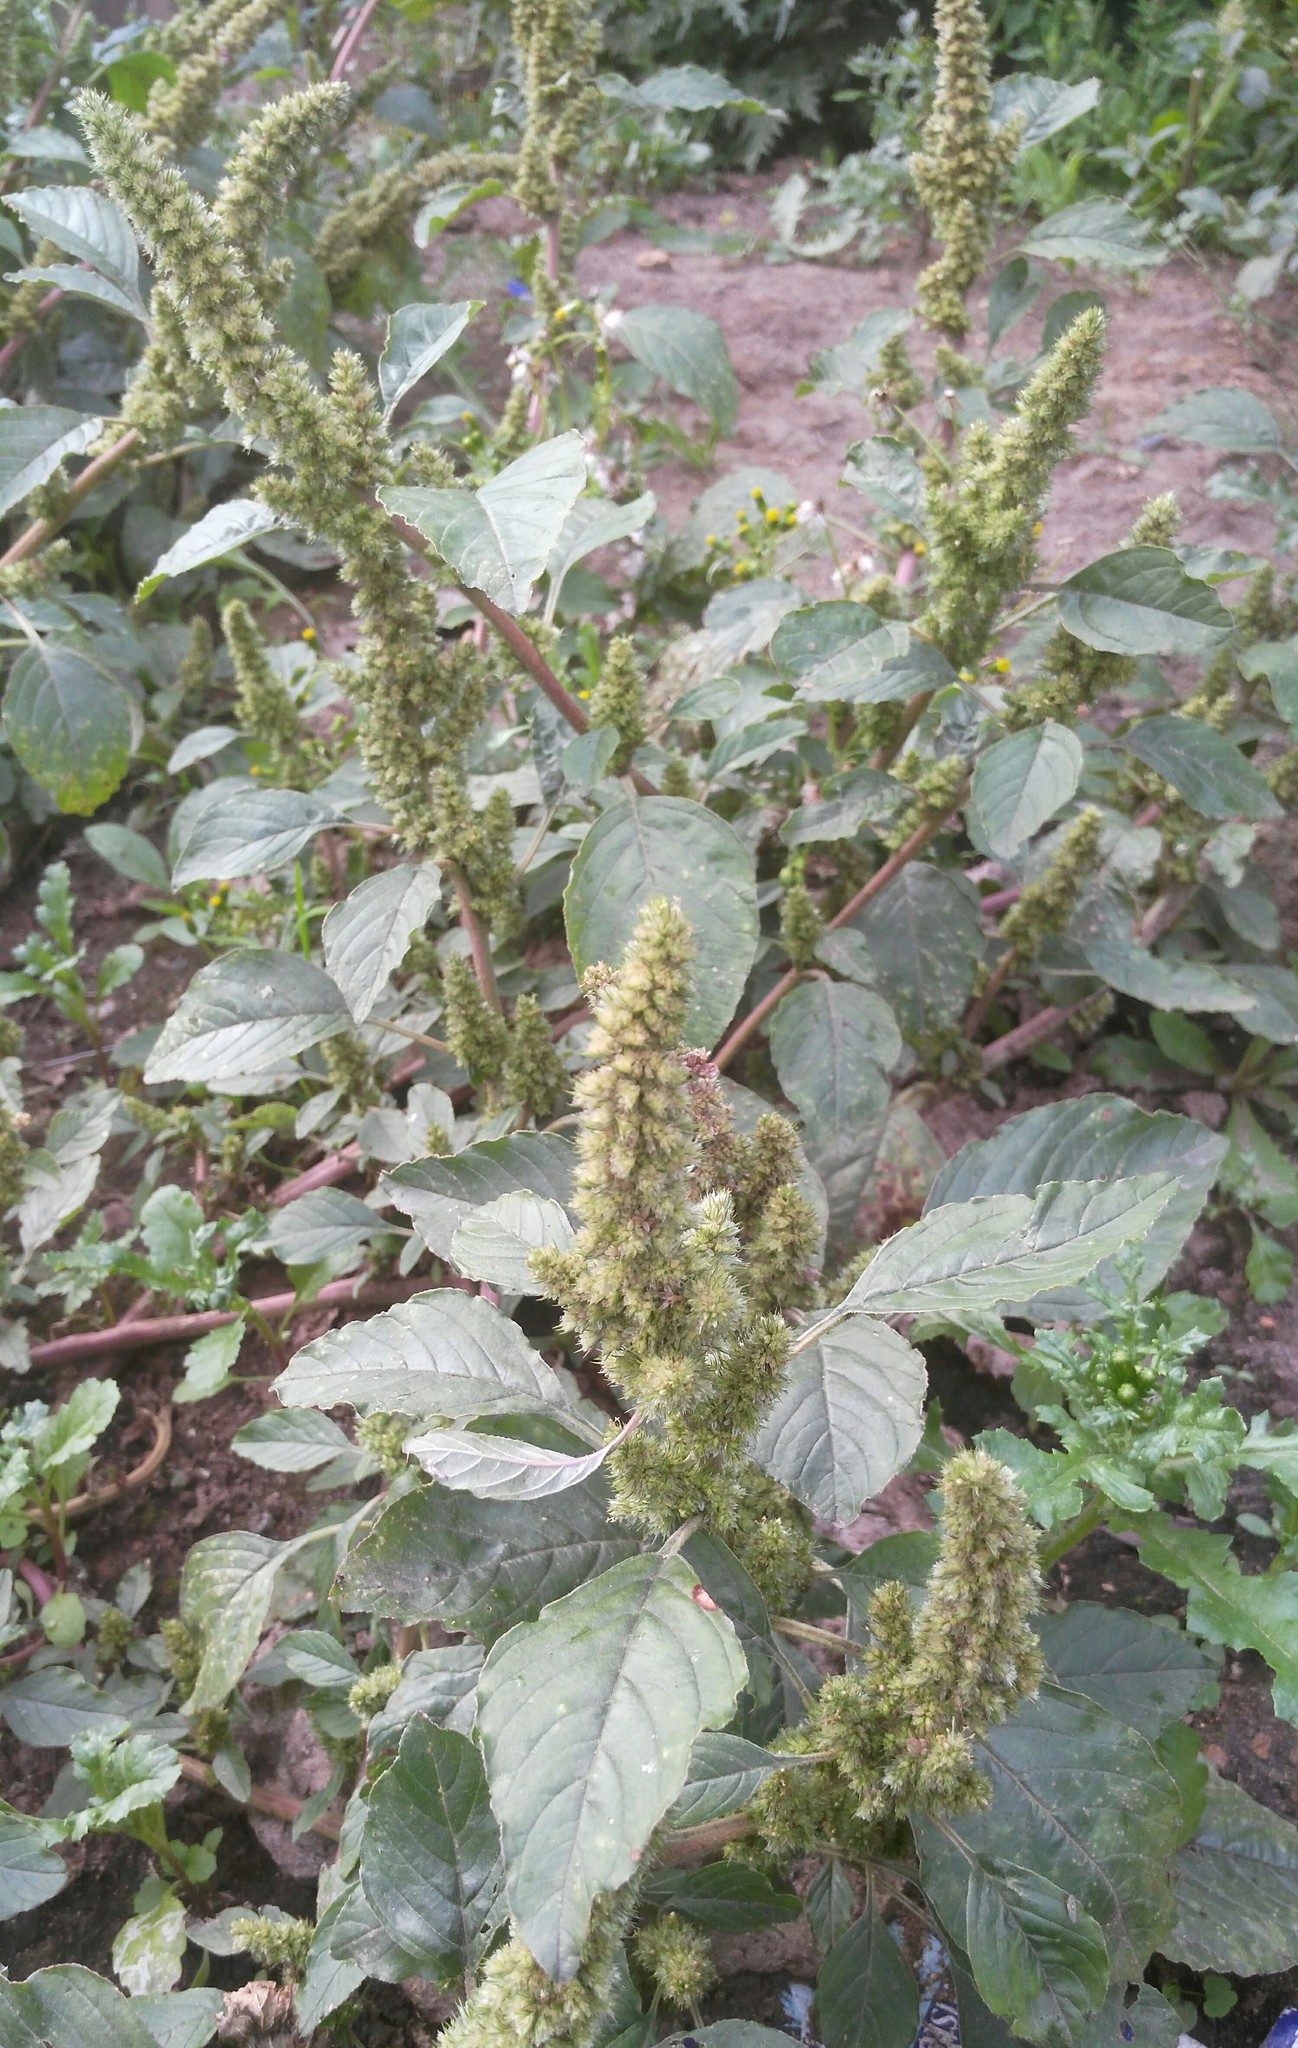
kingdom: Plantae
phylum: Tracheophyta
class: Magnoliopsida
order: Caryophyllales
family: Amaranthaceae
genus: Amaranthus
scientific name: Amaranthus retroflexus
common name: Redroot amaranth
